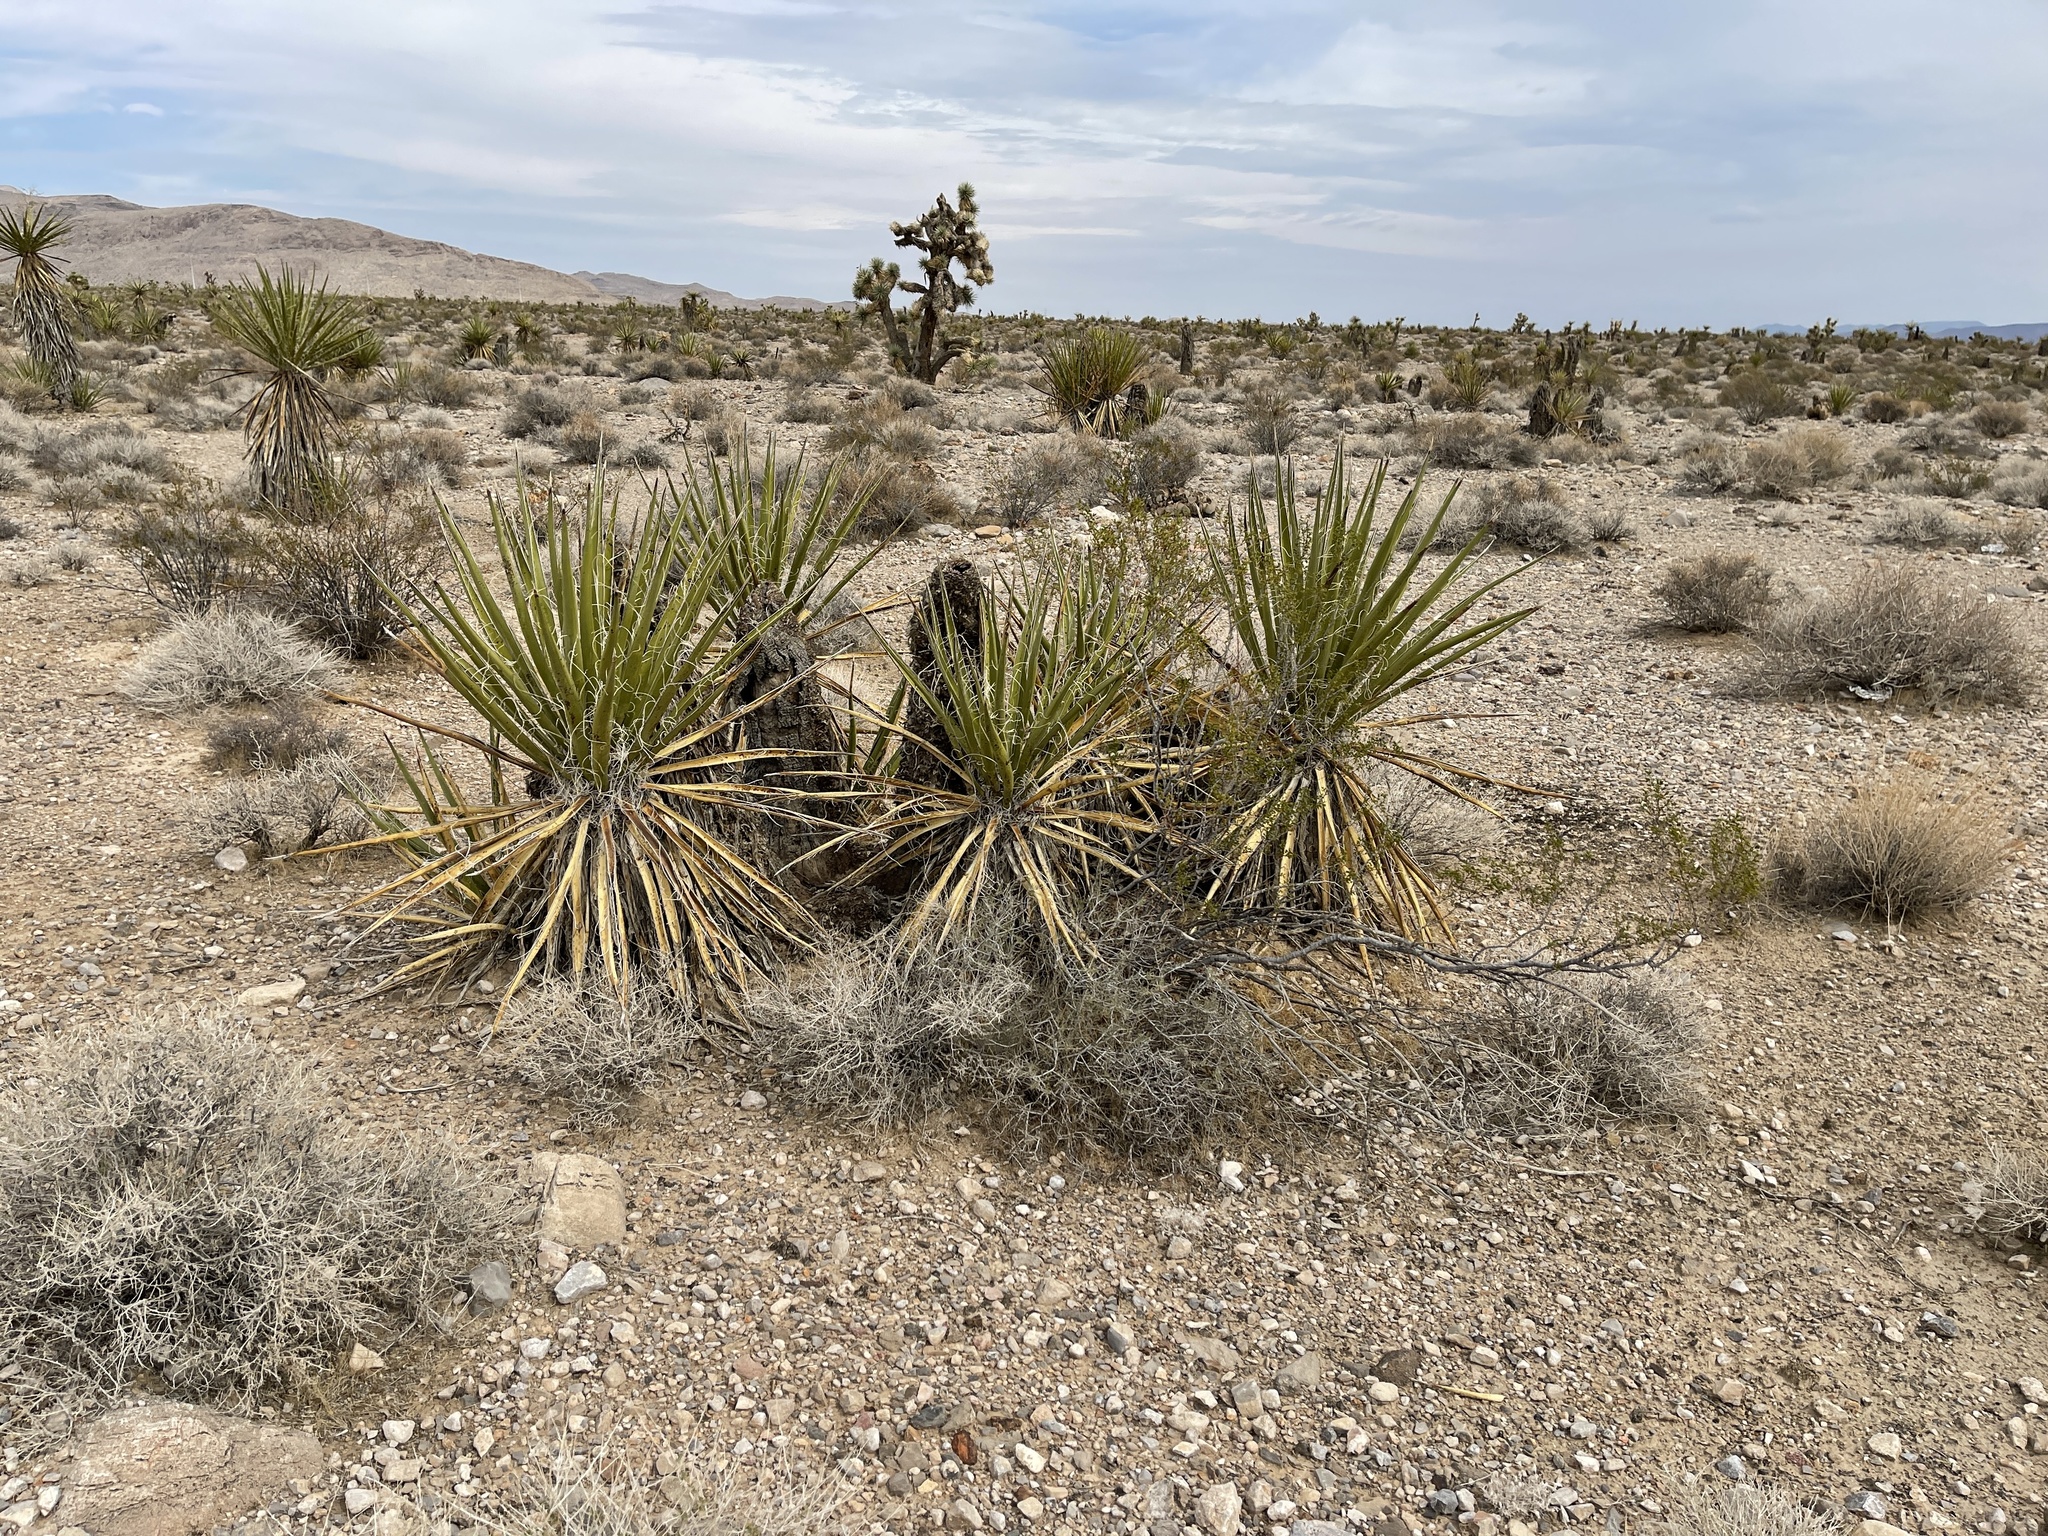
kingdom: Plantae
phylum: Tracheophyta
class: Liliopsida
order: Asparagales
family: Asparagaceae
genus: Yucca
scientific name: Yucca schidigera
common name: Mojave yucca
